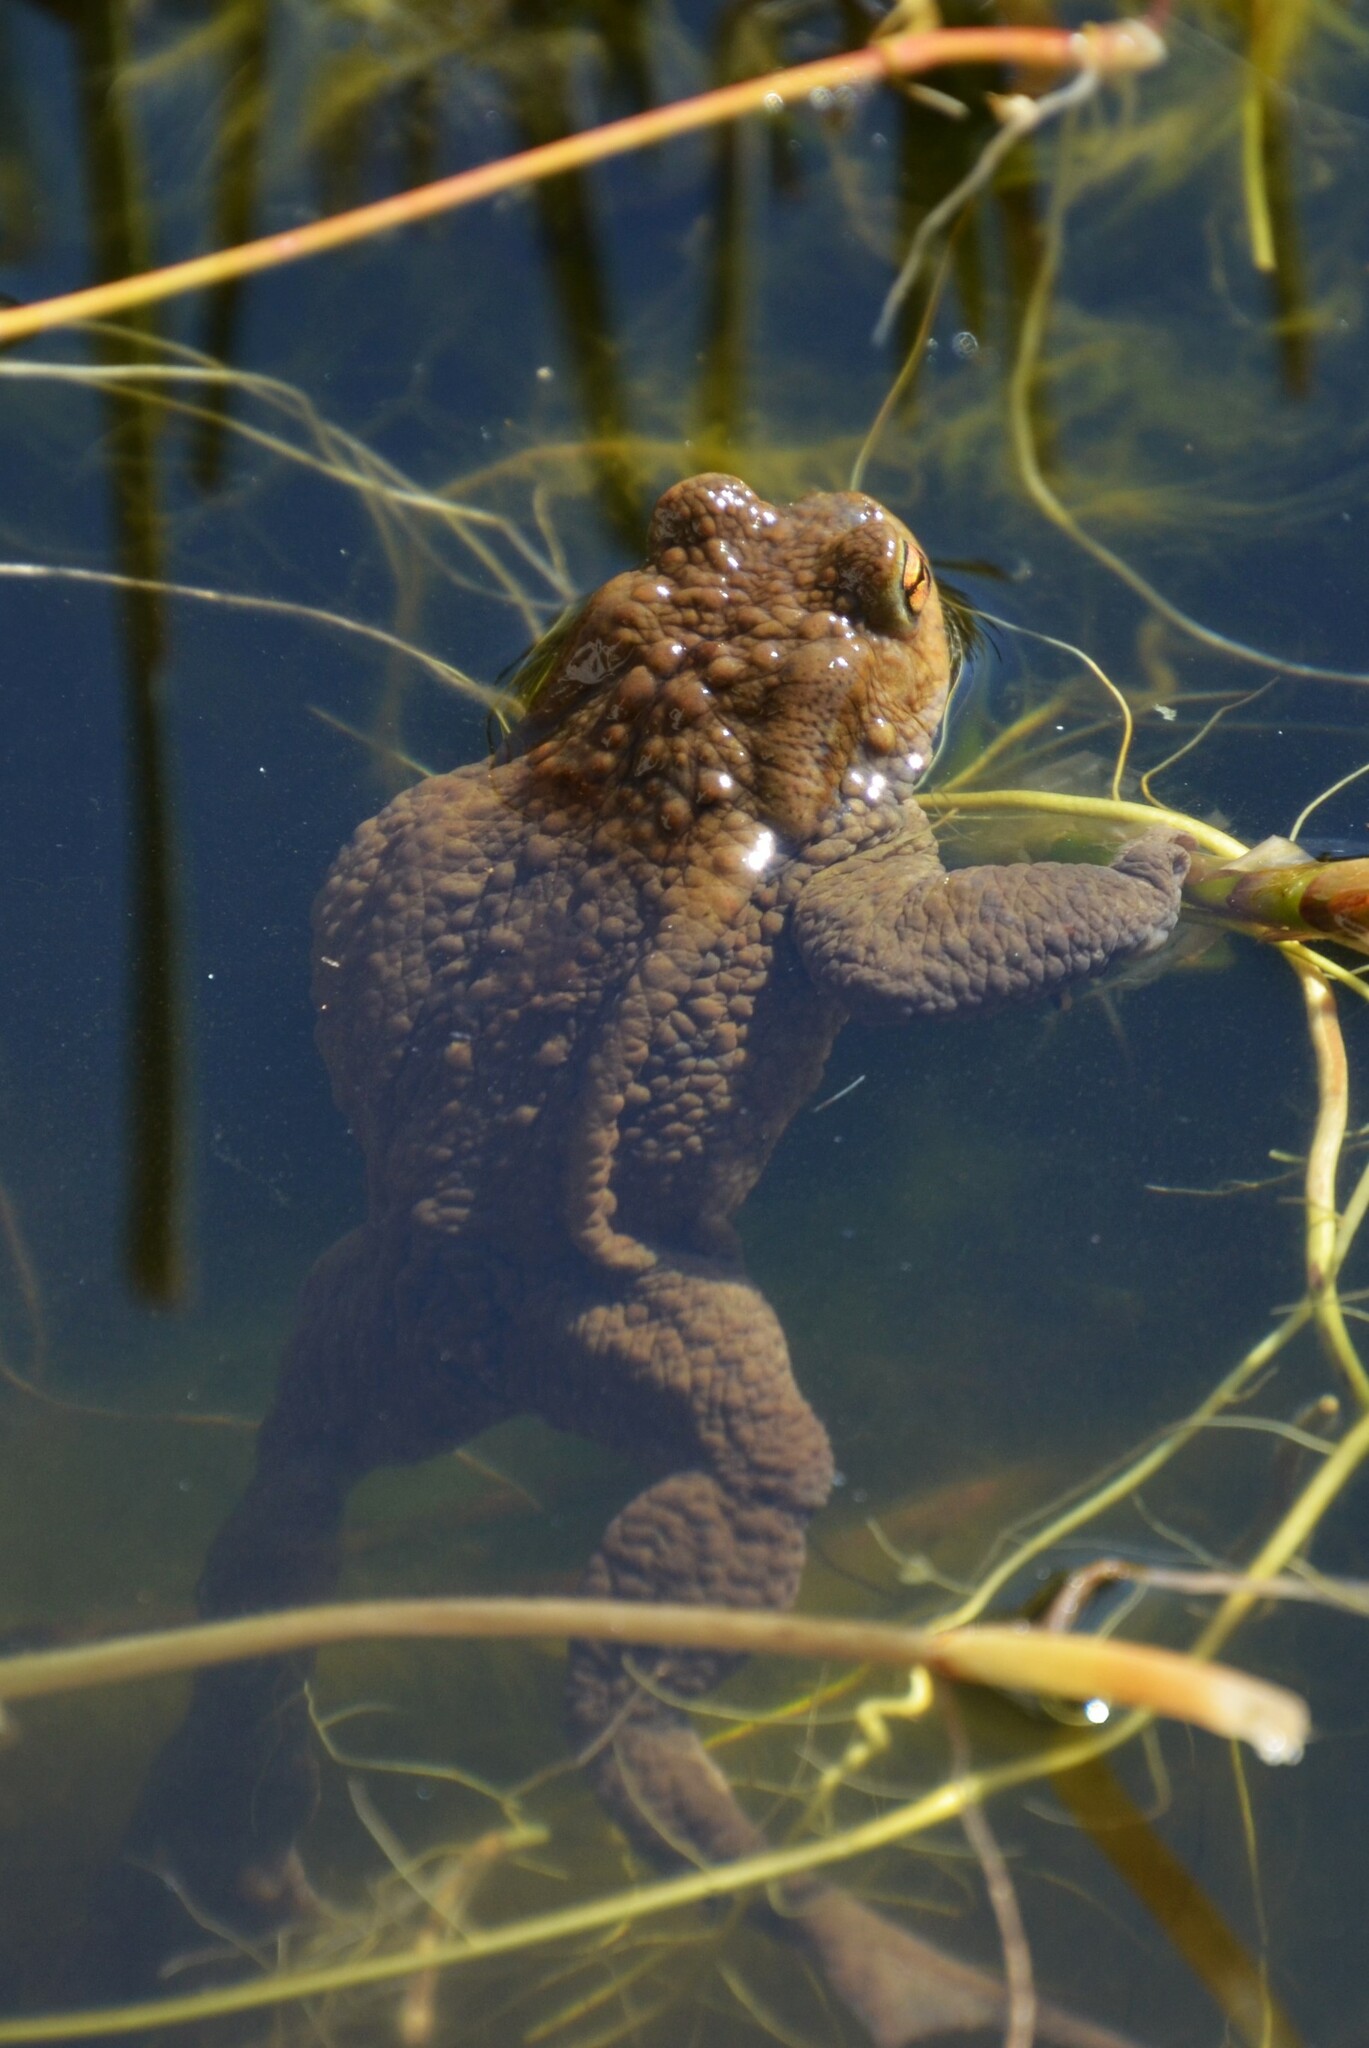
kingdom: Animalia
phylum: Chordata
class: Amphibia
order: Anura
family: Bufonidae
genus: Bufo
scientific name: Bufo bufo
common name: Common toad
